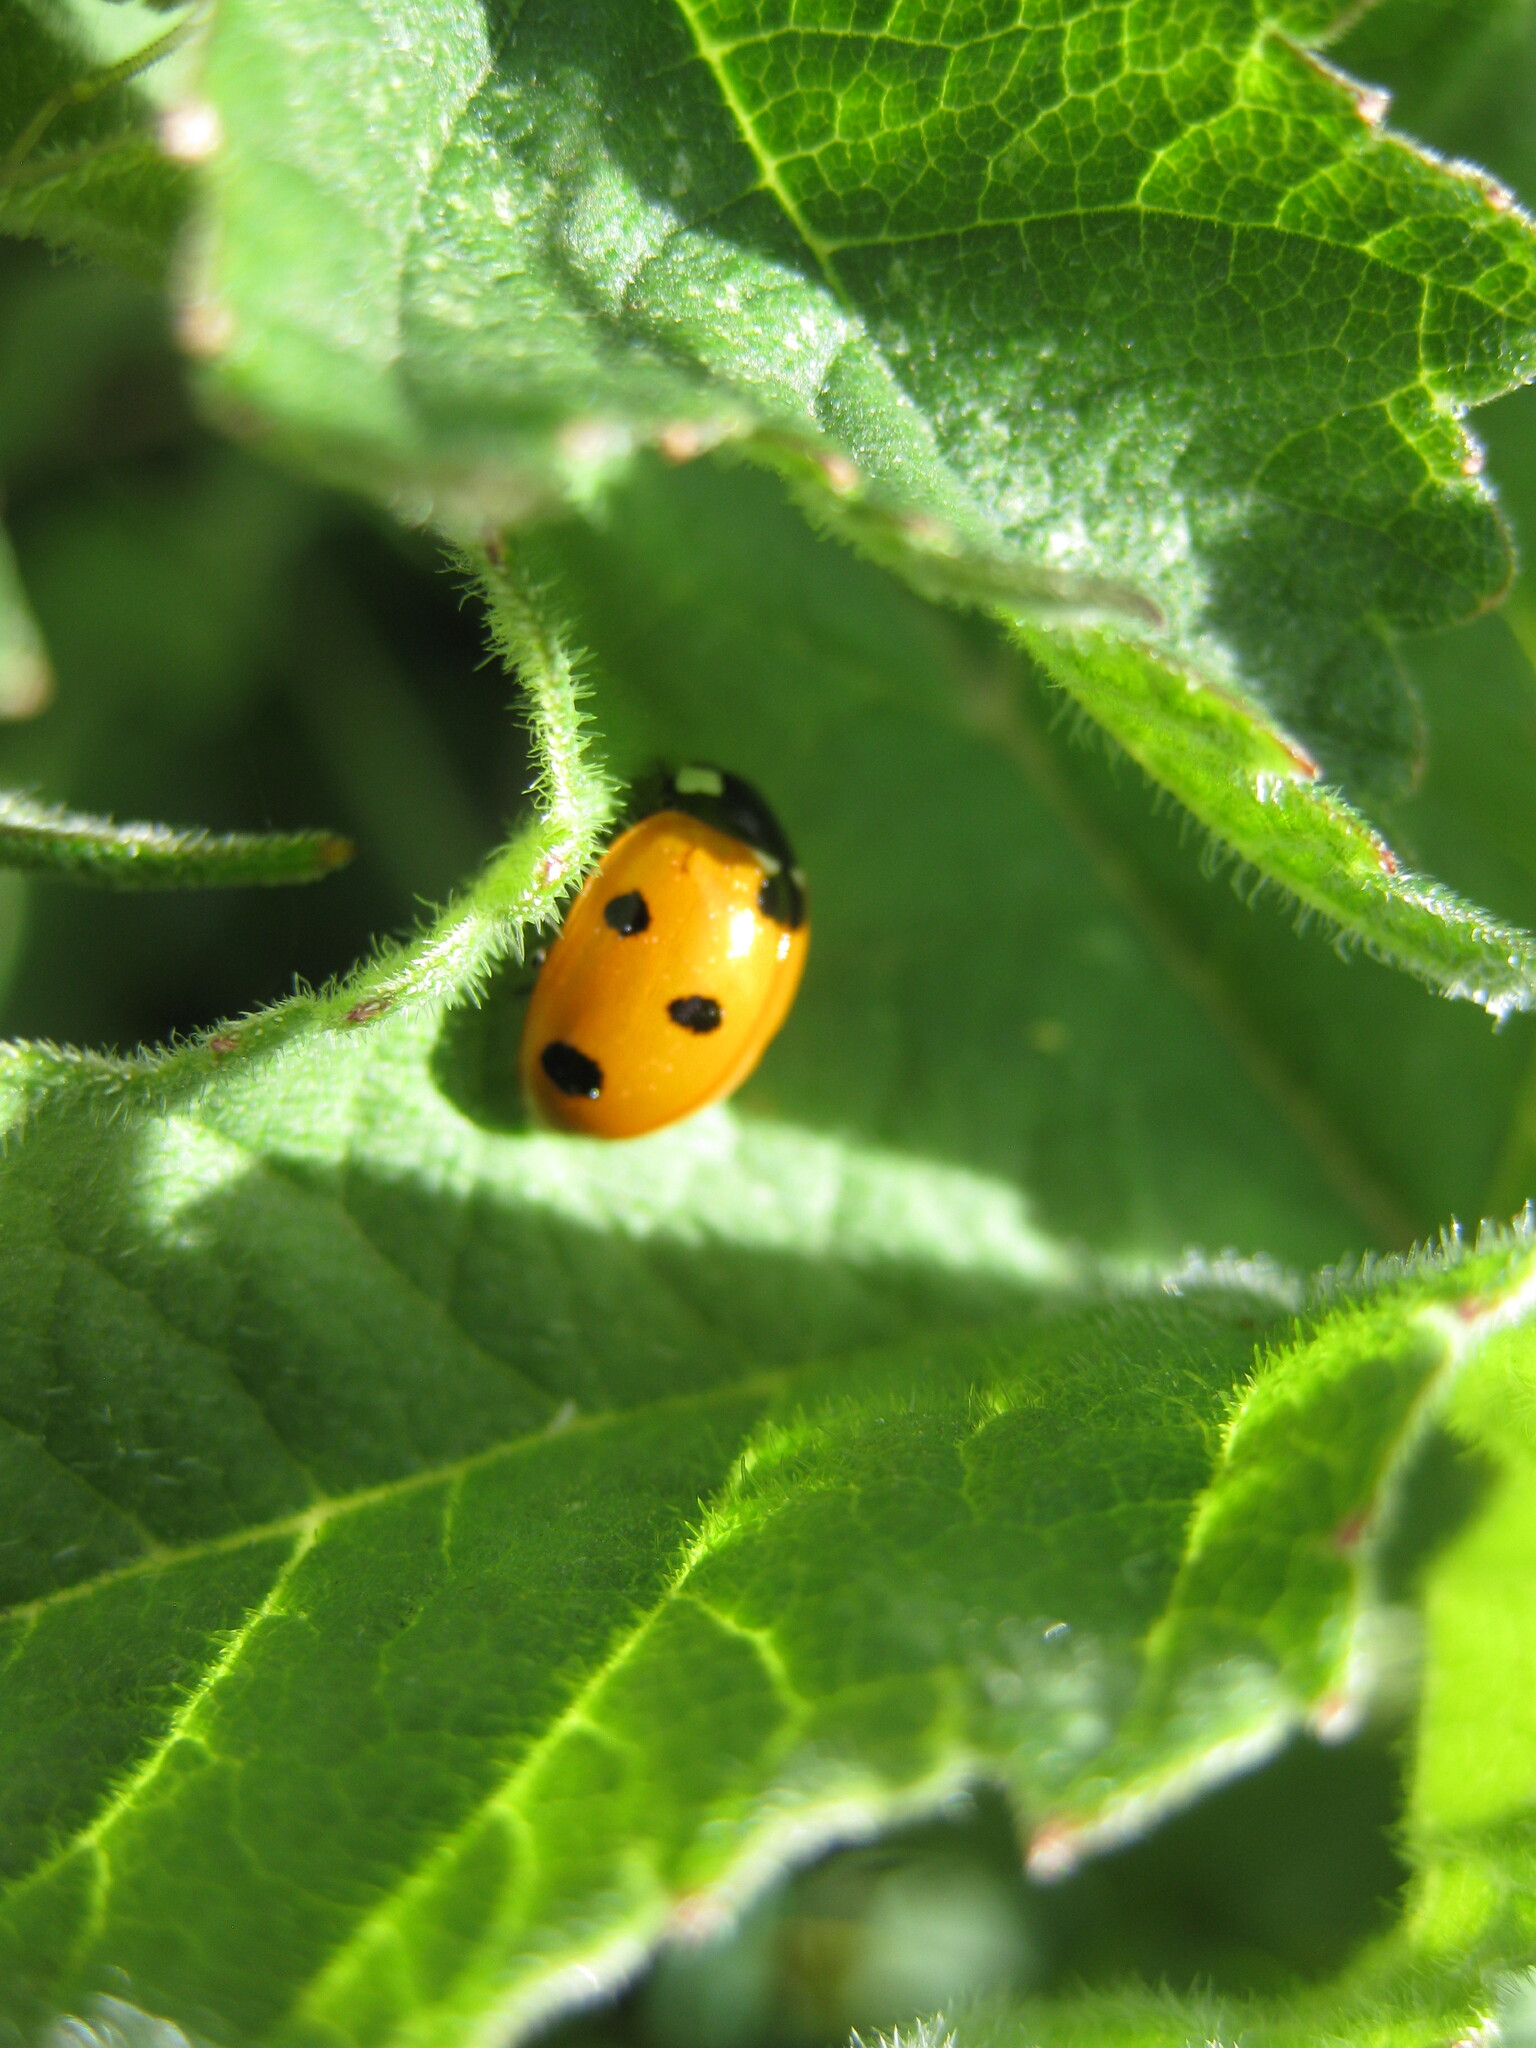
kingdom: Animalia
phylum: Arthropoda
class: Insecta
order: Coleoptera
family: Coccinellidae
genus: Coccinella
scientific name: Coccinella septempunctata
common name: Sevenspotted lady beetle
